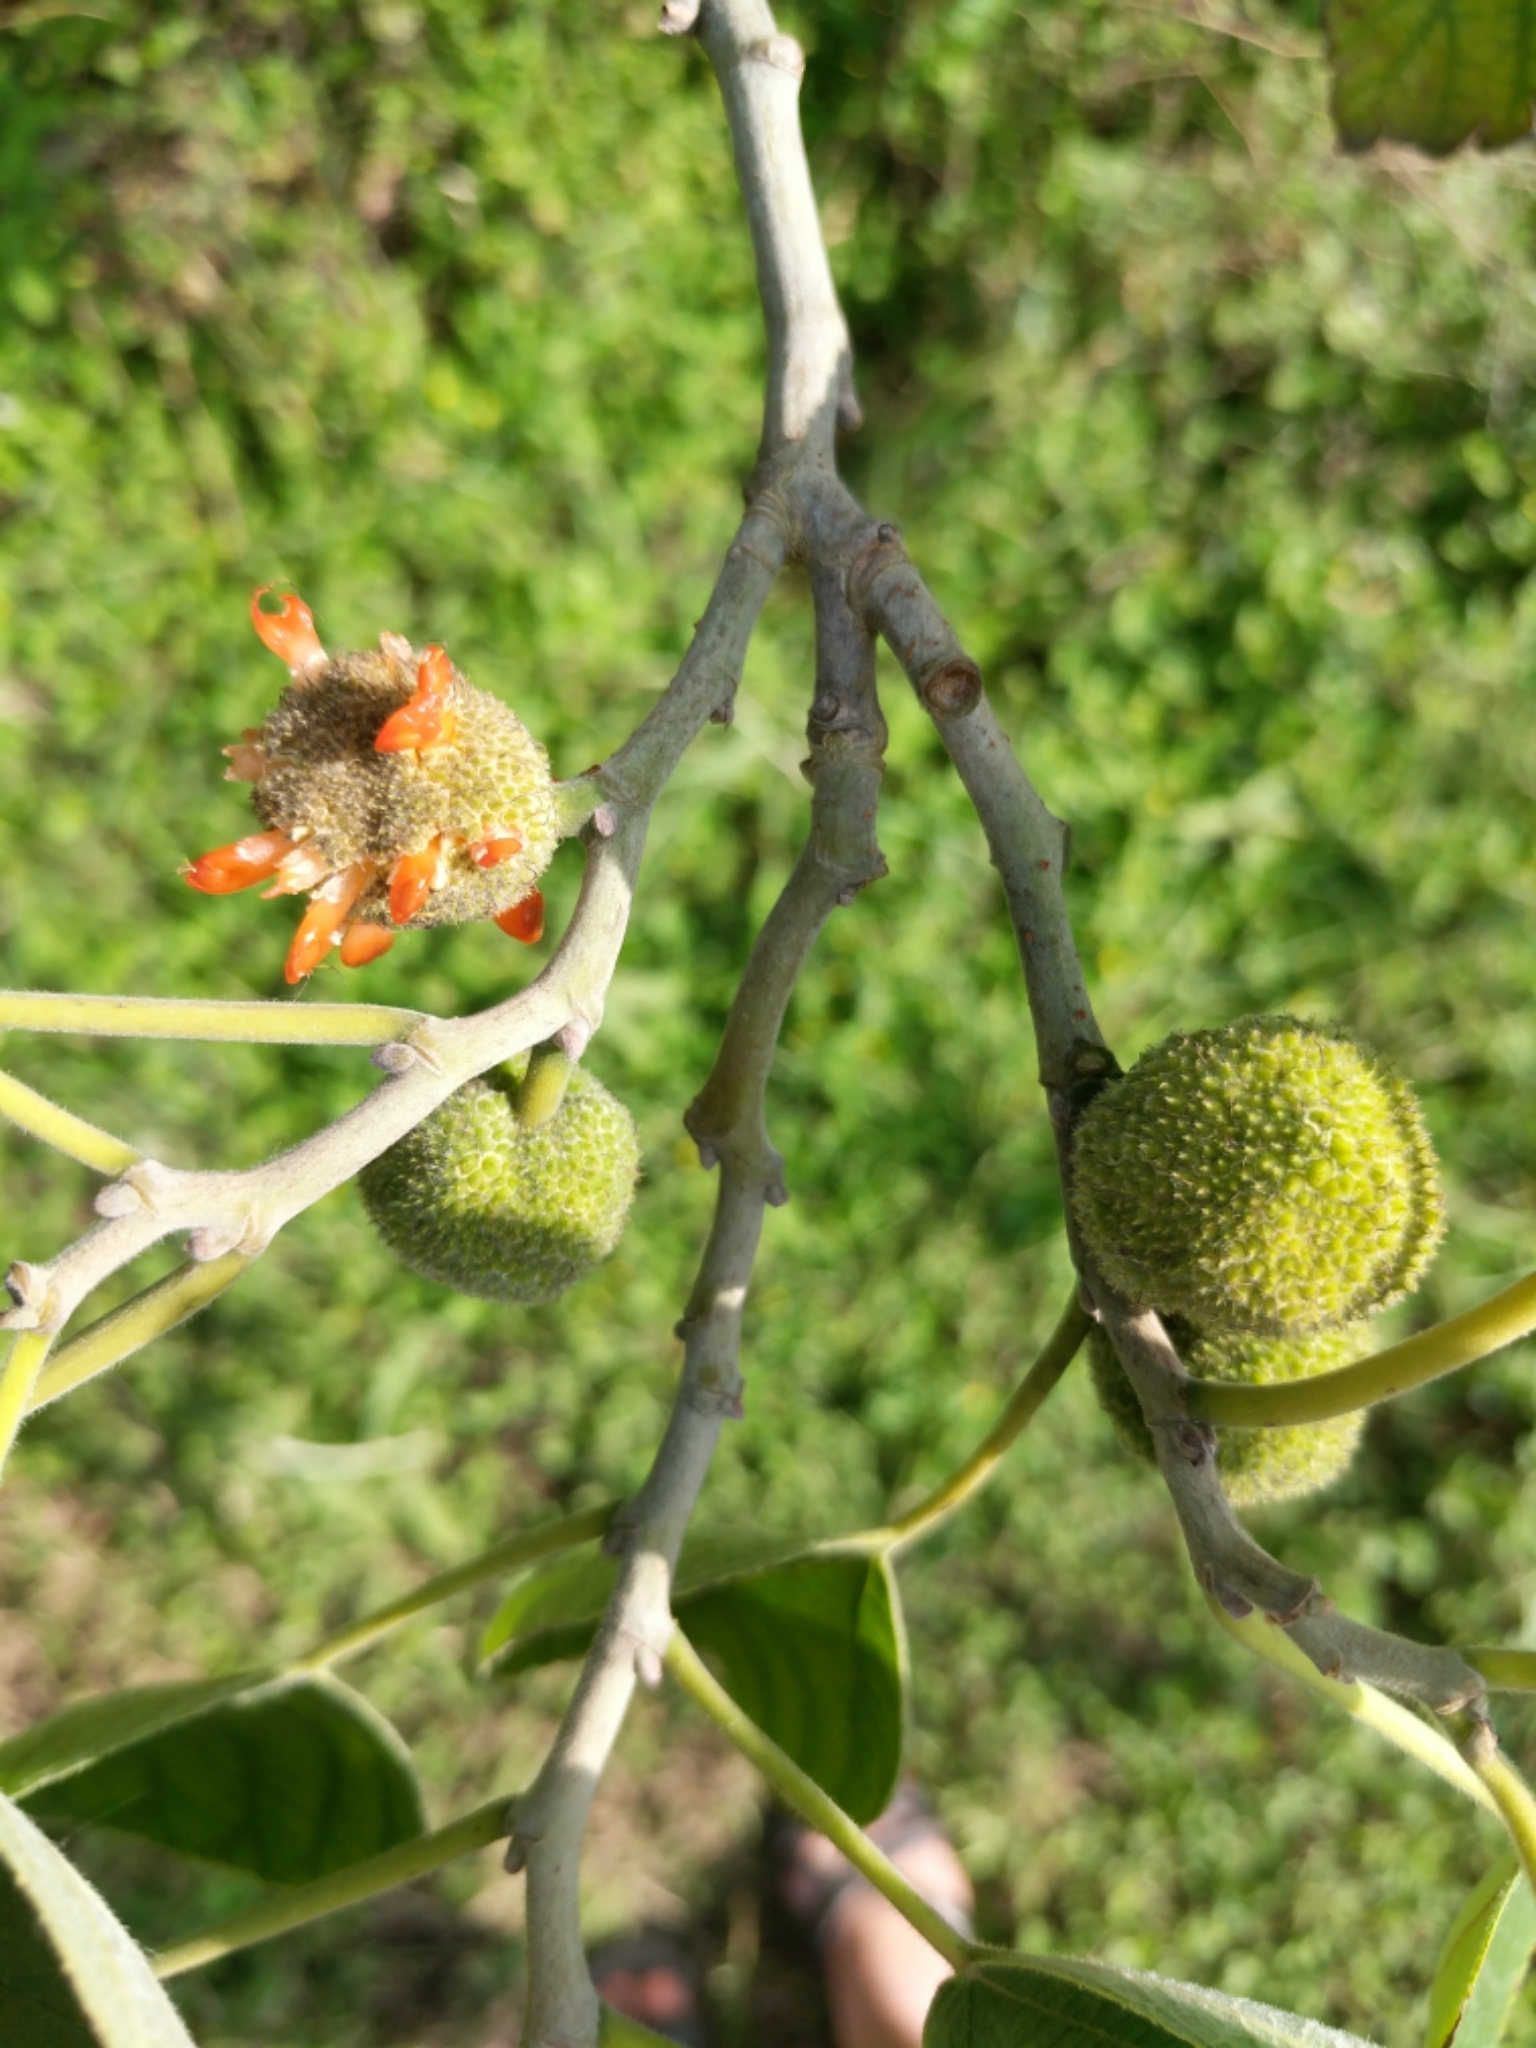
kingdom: Plantae
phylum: Tracheophyta
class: Magnoliopsida
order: Rosales
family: Moraceae
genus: Broussonetia
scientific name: Broussonetia papyrifera
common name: Paper mulberry
